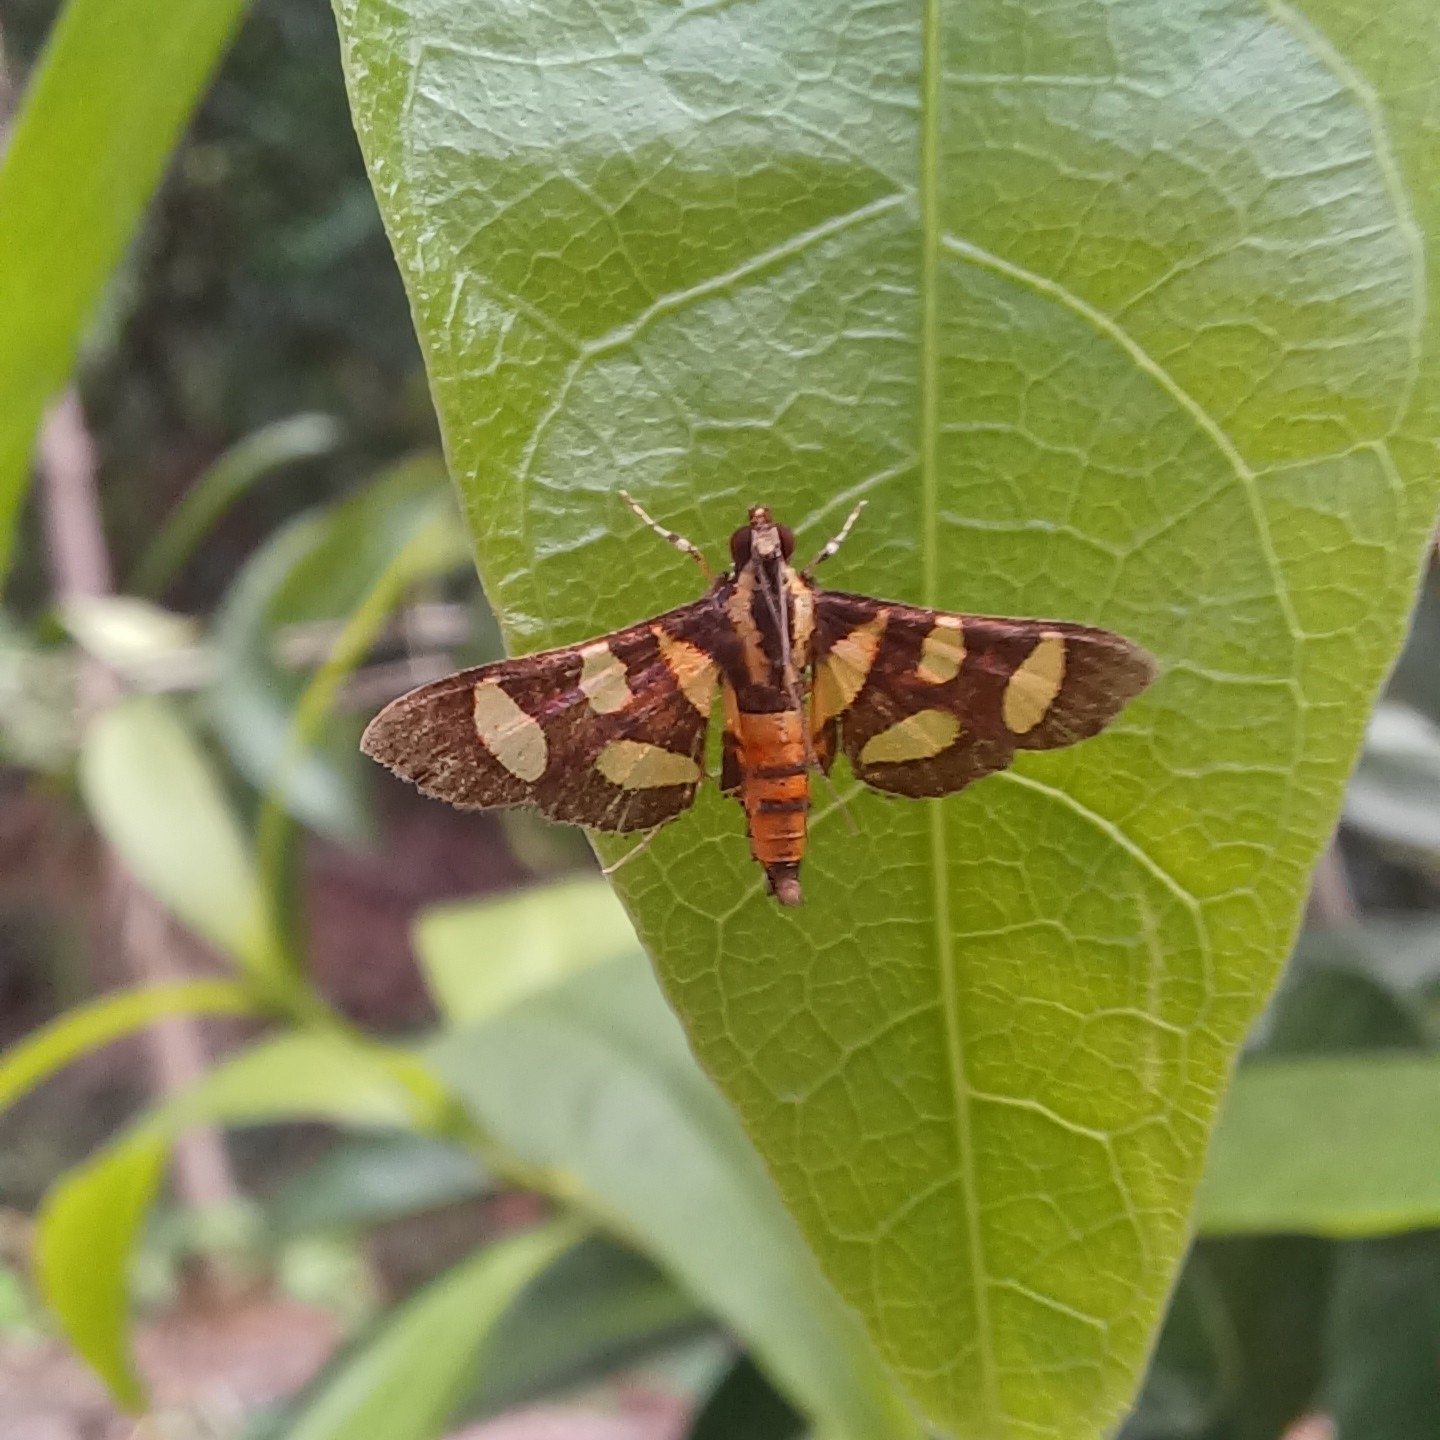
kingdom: Animalia
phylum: Arthropoda
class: Insecta
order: Lepidoptera
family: Crambidae
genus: Syngamia
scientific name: Syngamia florella
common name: Orange-spotted flower moth
